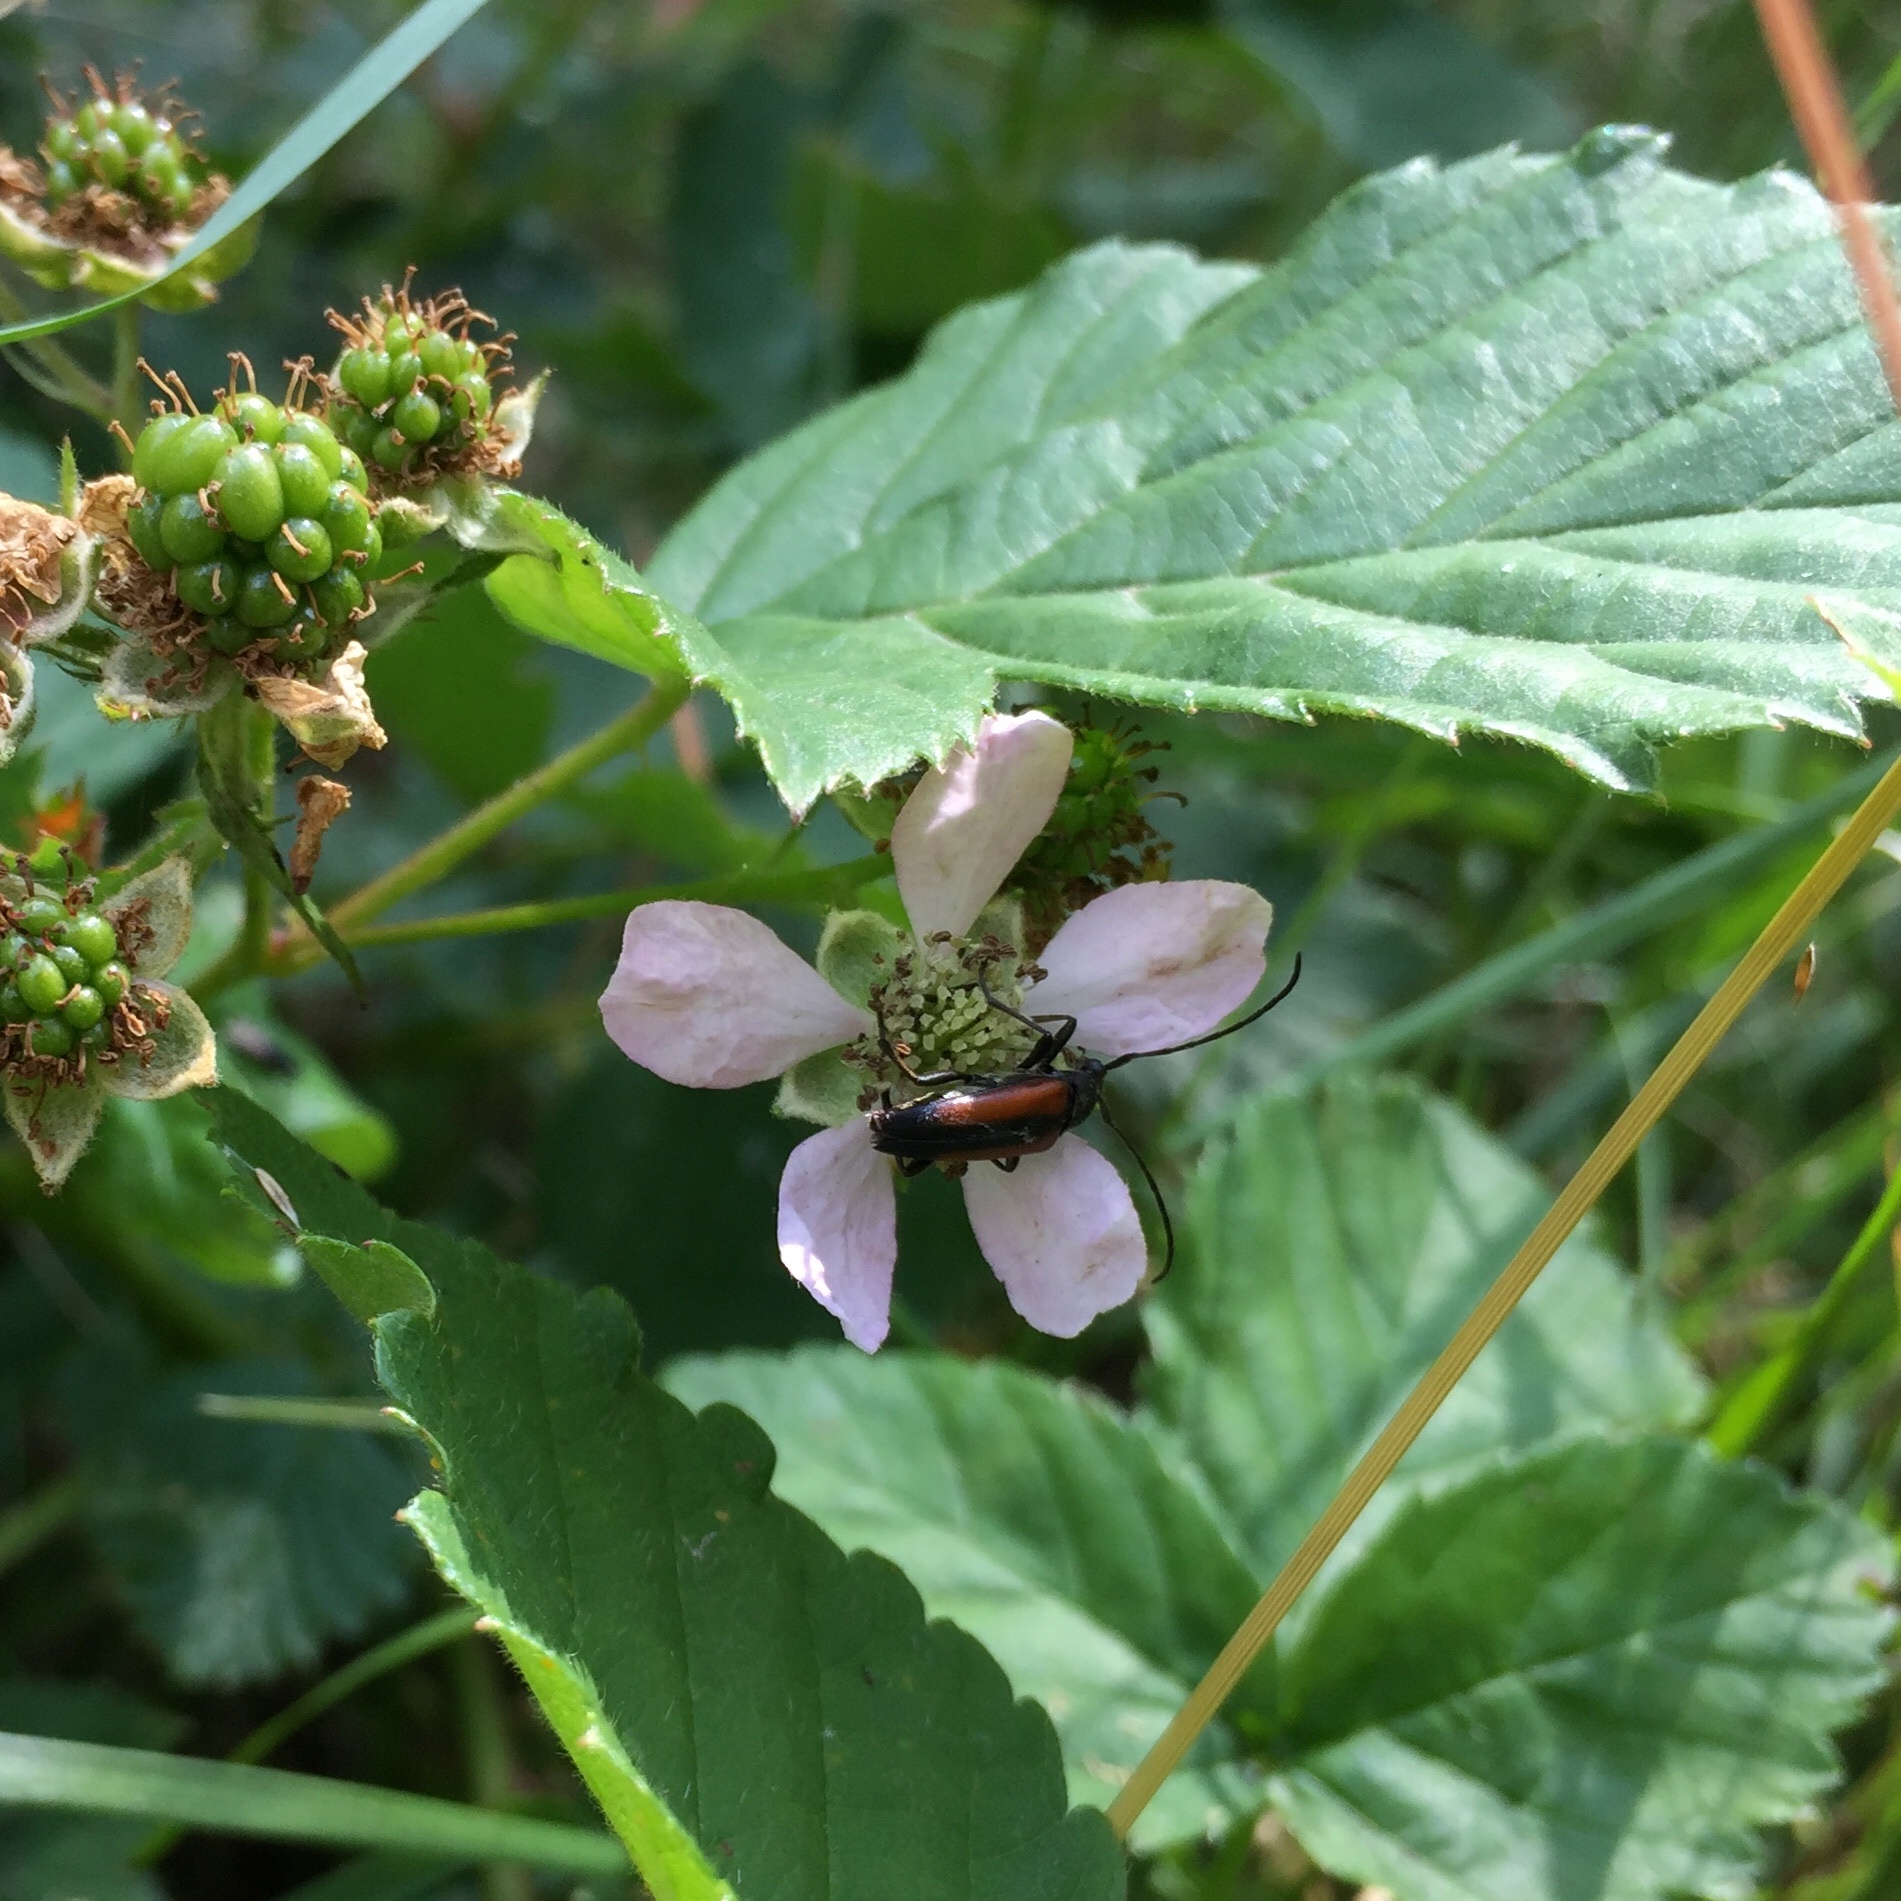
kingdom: Animalia
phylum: Arthropoda
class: Insecta
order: Coleoptera
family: Cerambycidae
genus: Stenurella
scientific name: Stenurella melanura
